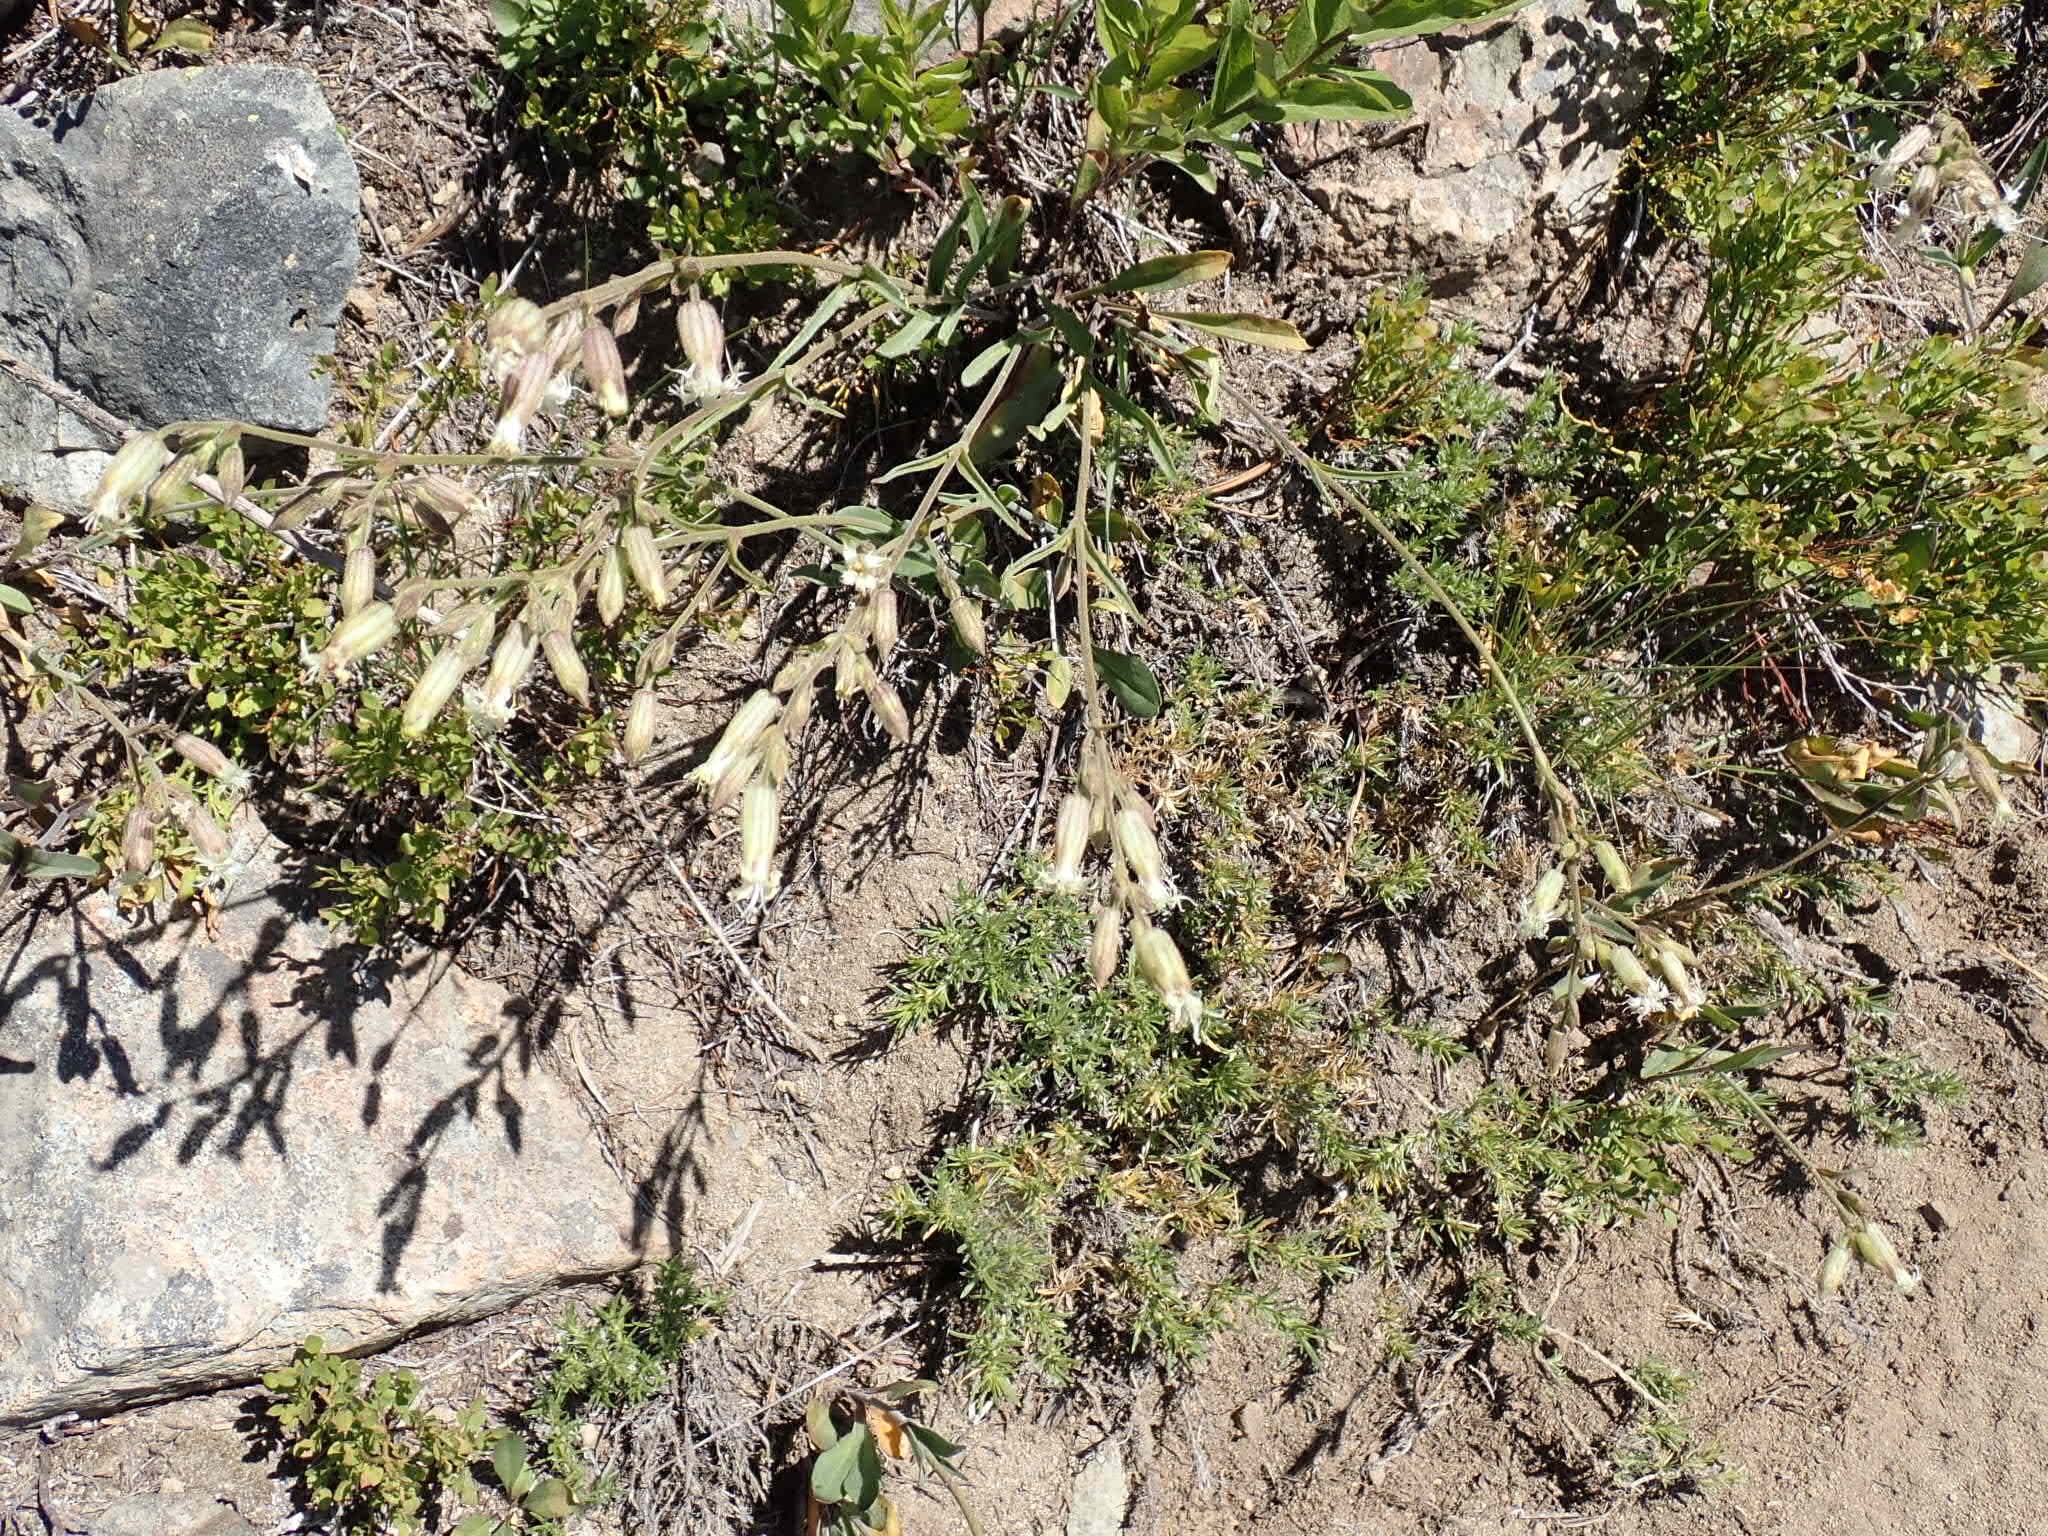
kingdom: Plantae
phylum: Tracheophyta
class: Magnoliopsida
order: Caryophyllales
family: Caryophyllaceae
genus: Silene
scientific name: Silene oregana
